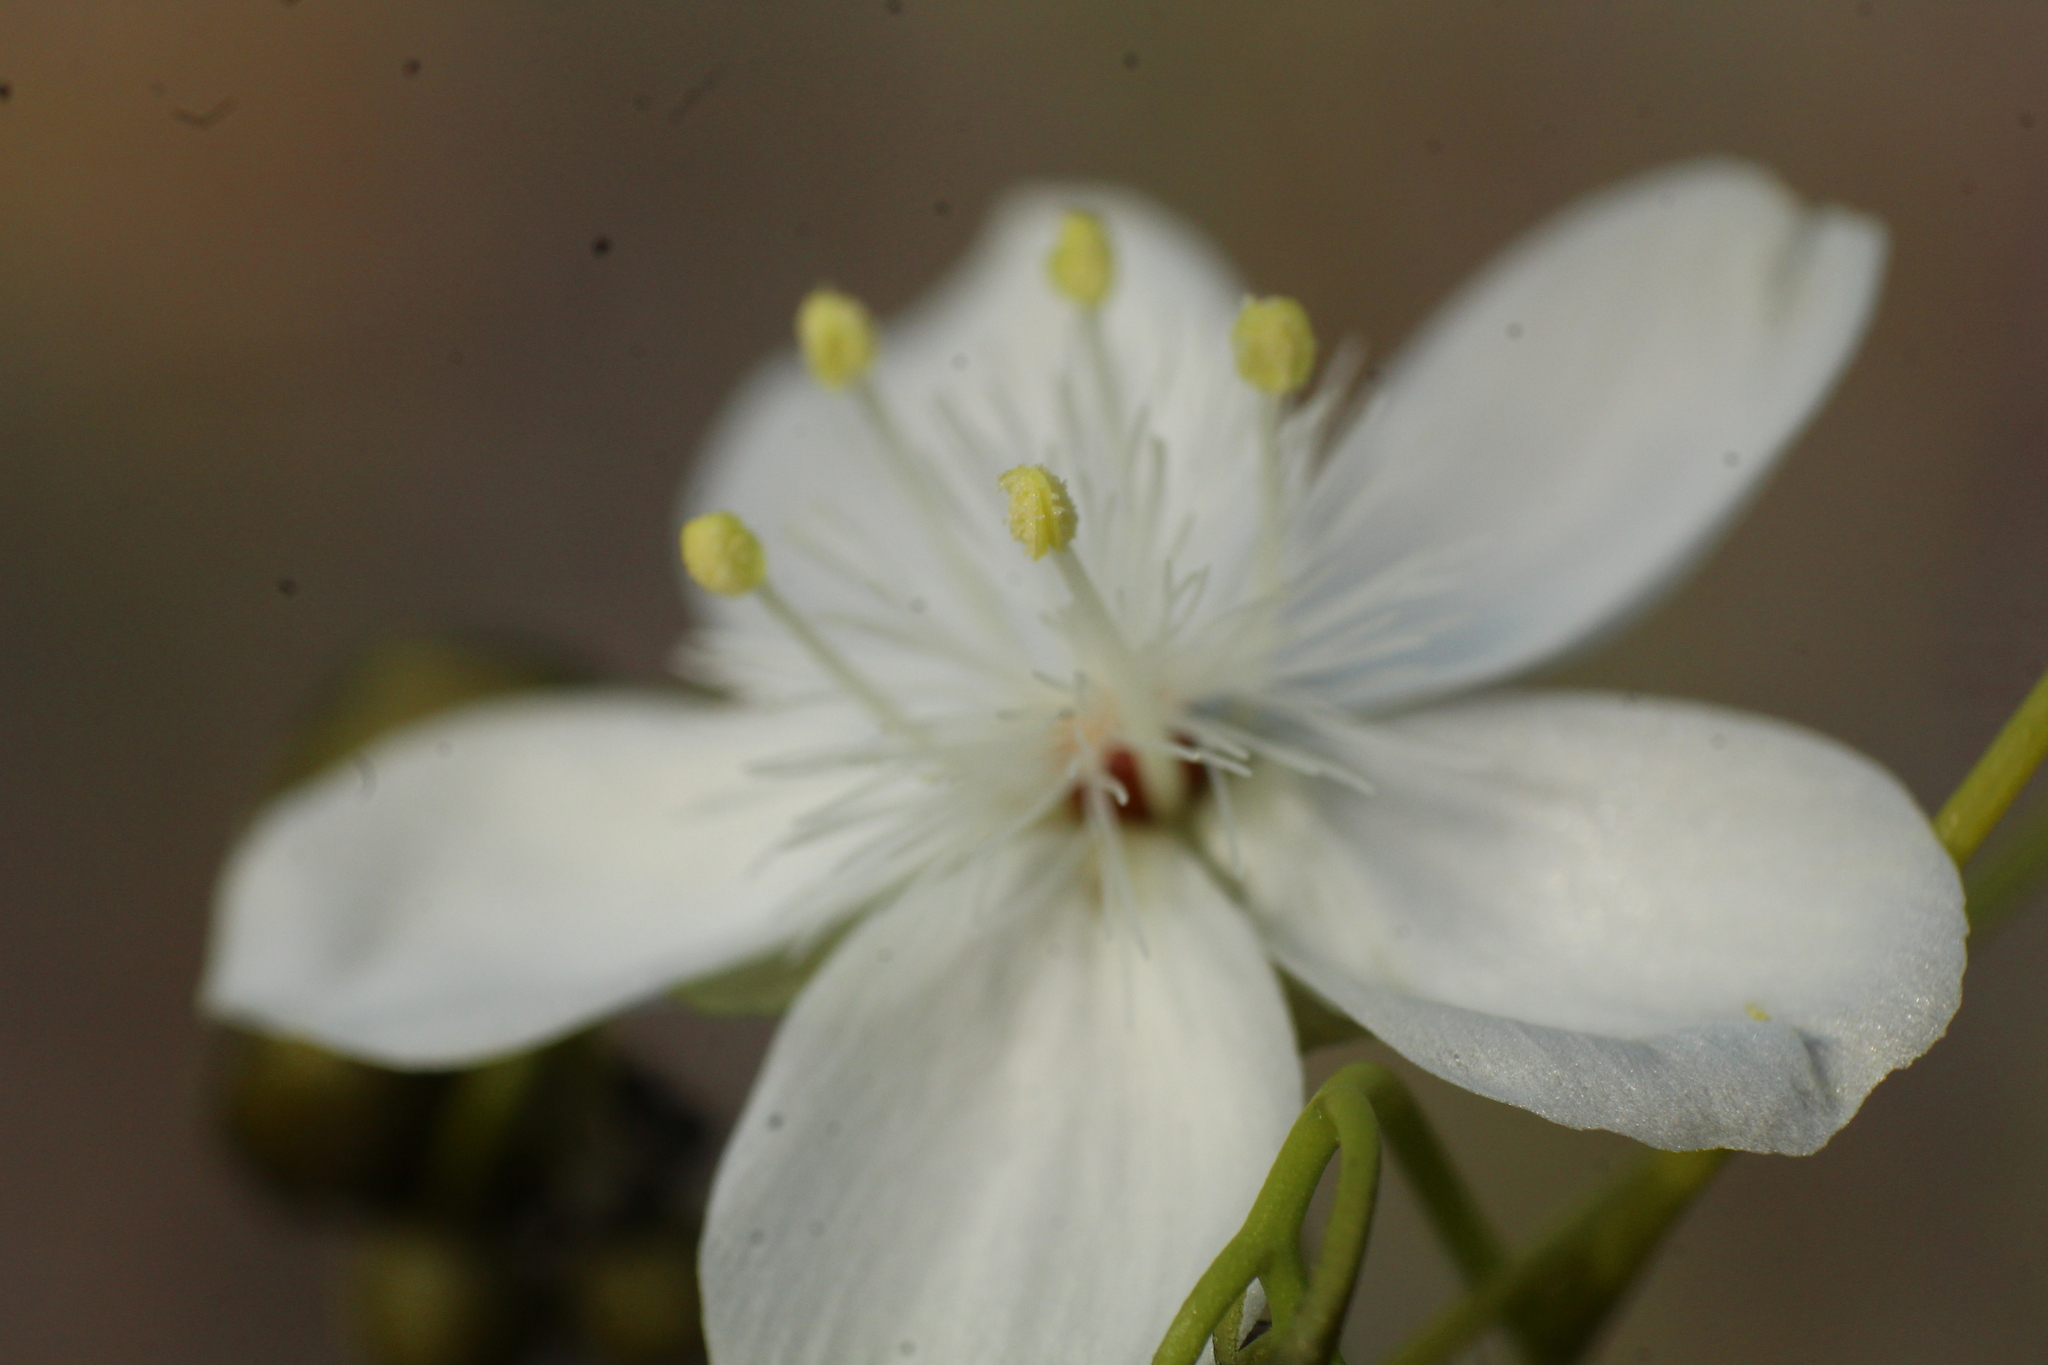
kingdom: Plantae
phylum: Tracheophyta
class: Magnoliopsida
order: Caryophyllales
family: Droseraceae
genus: Drosera
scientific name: Drosera pallida
